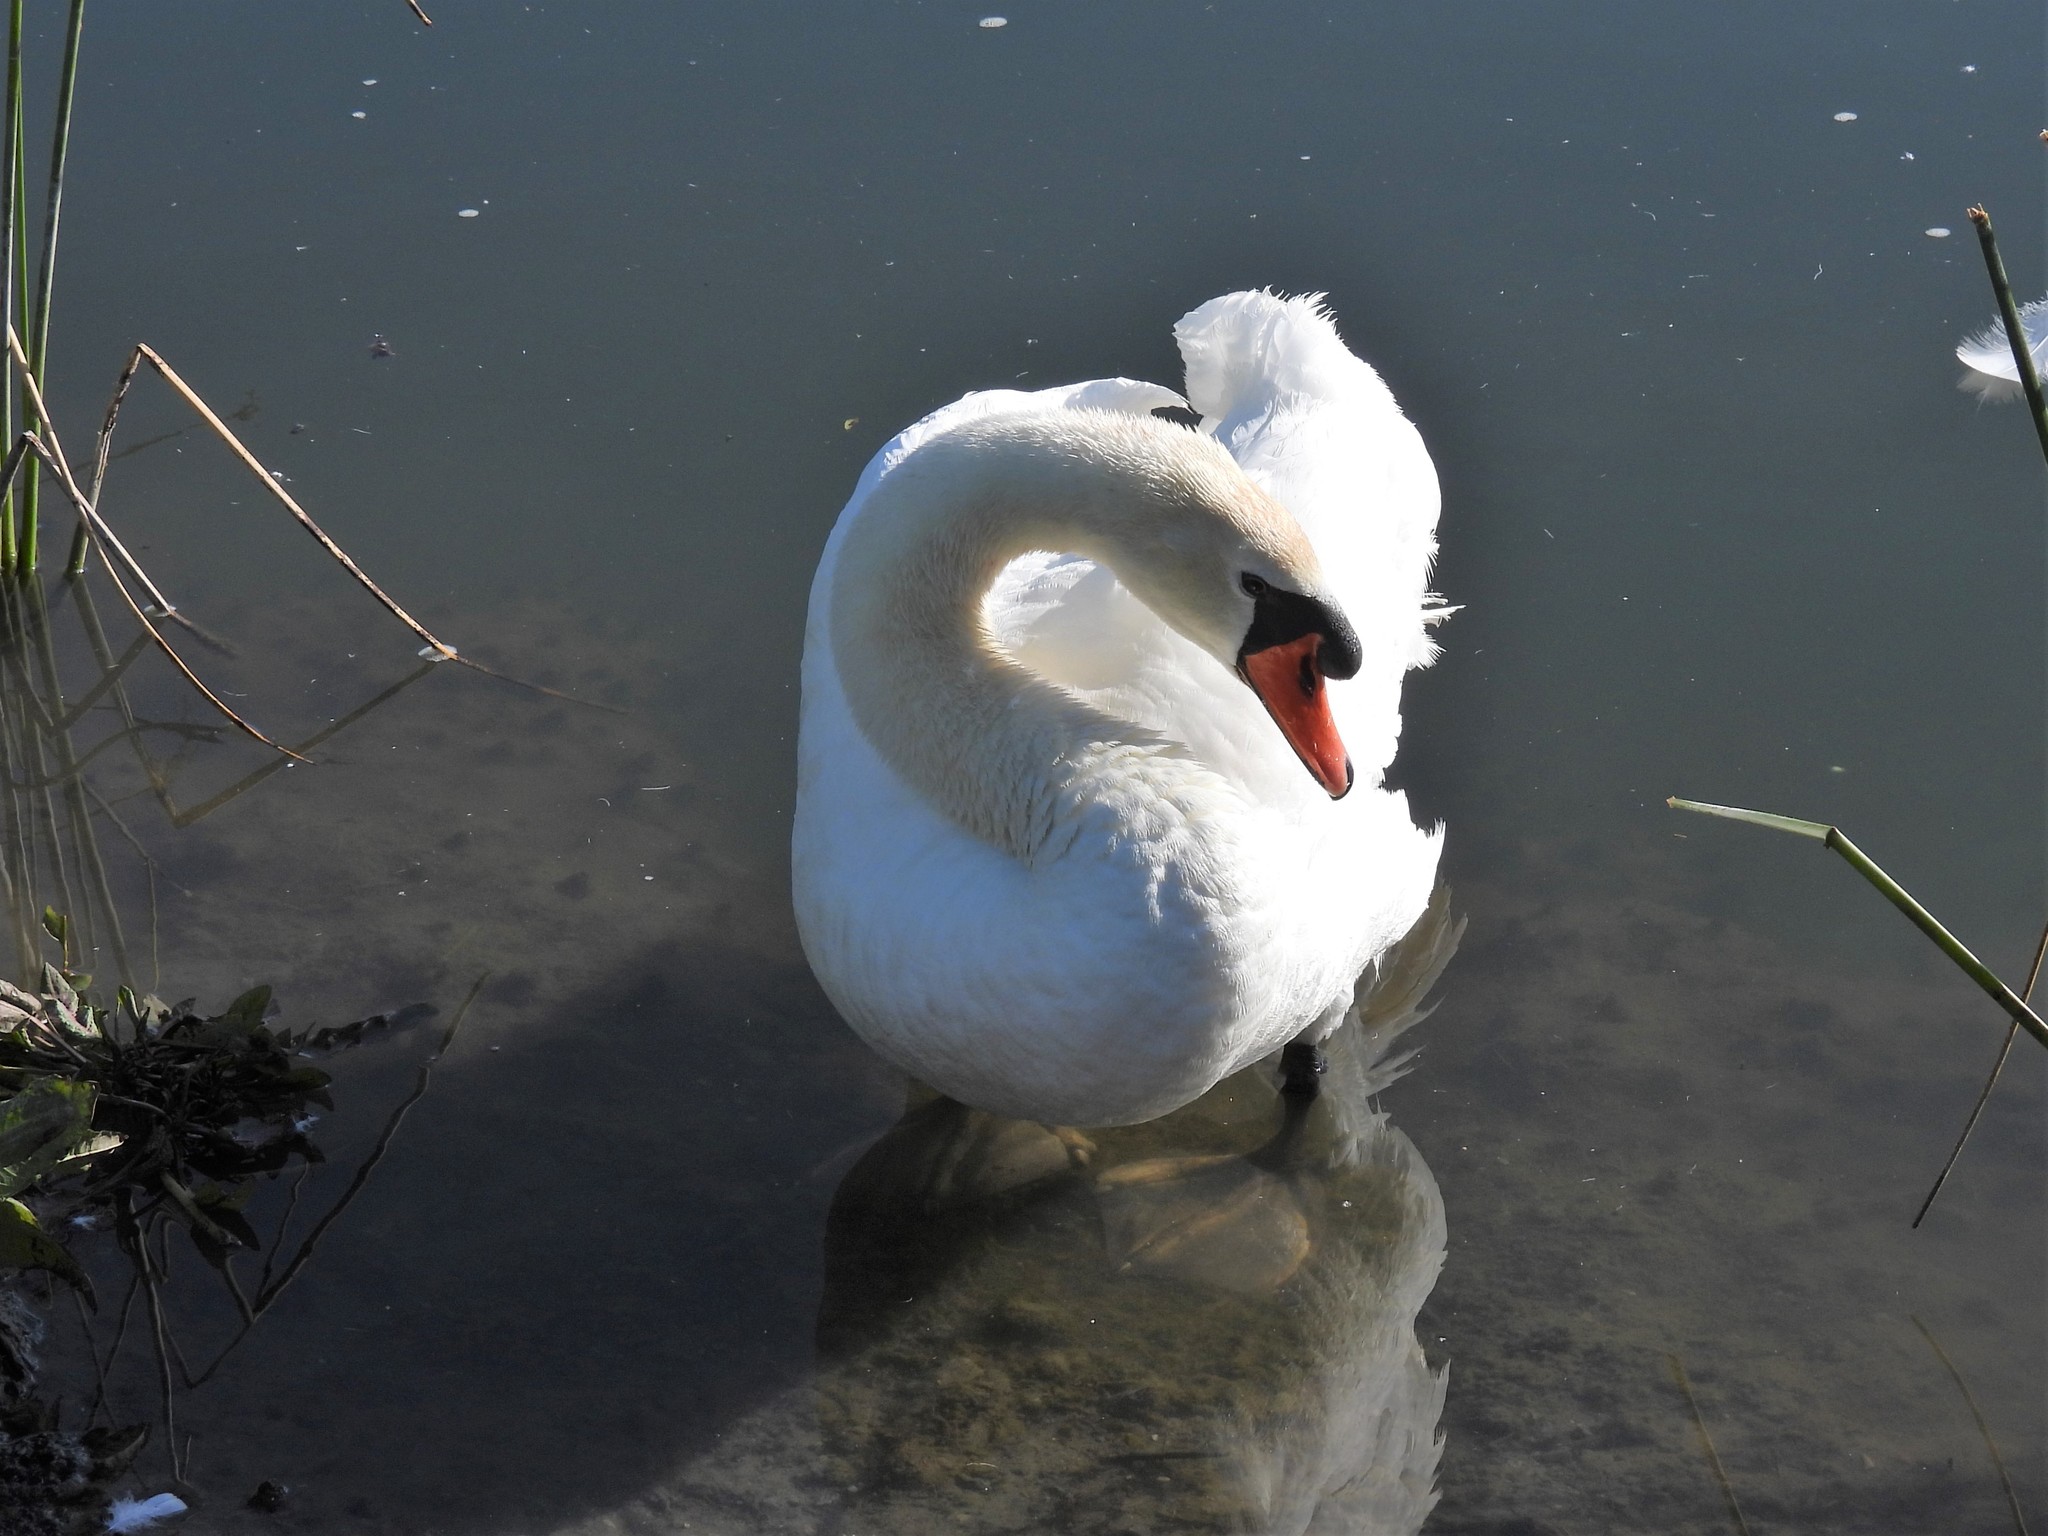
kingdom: Animalia
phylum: Chordata
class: Aves
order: Anseriformes
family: Anatidae
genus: Cygnus
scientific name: Cygnus olor
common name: Mute swan
